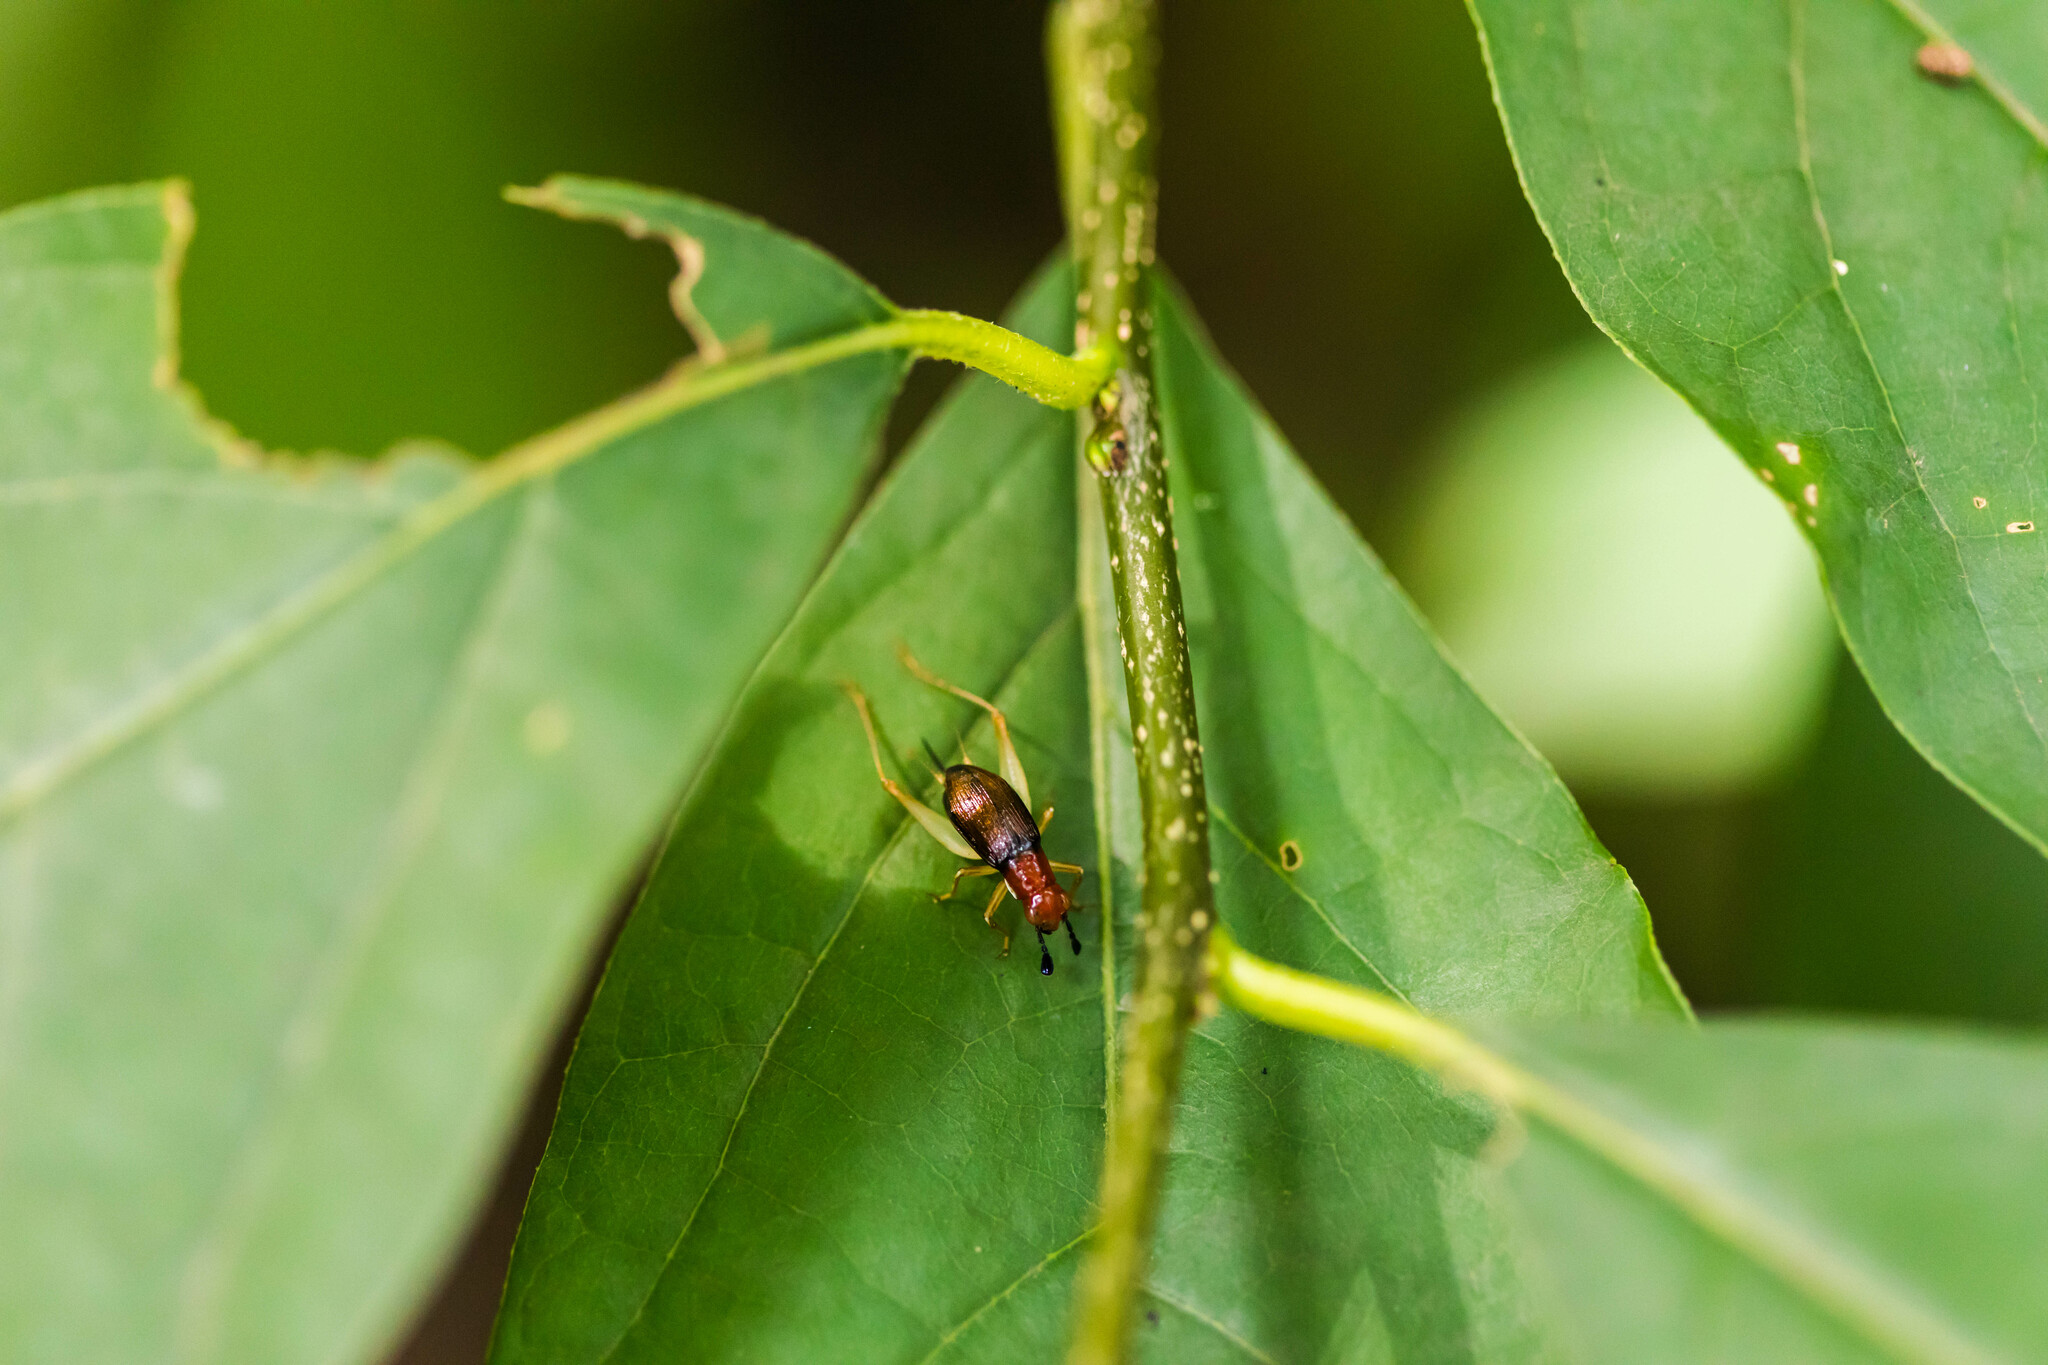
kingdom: Animalia
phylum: Arthropoda
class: Insecta
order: Orthoptera
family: Trigonidiidae
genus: Phyllopalpus
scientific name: Phyllopalpus pulchellus
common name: Handsome trig
